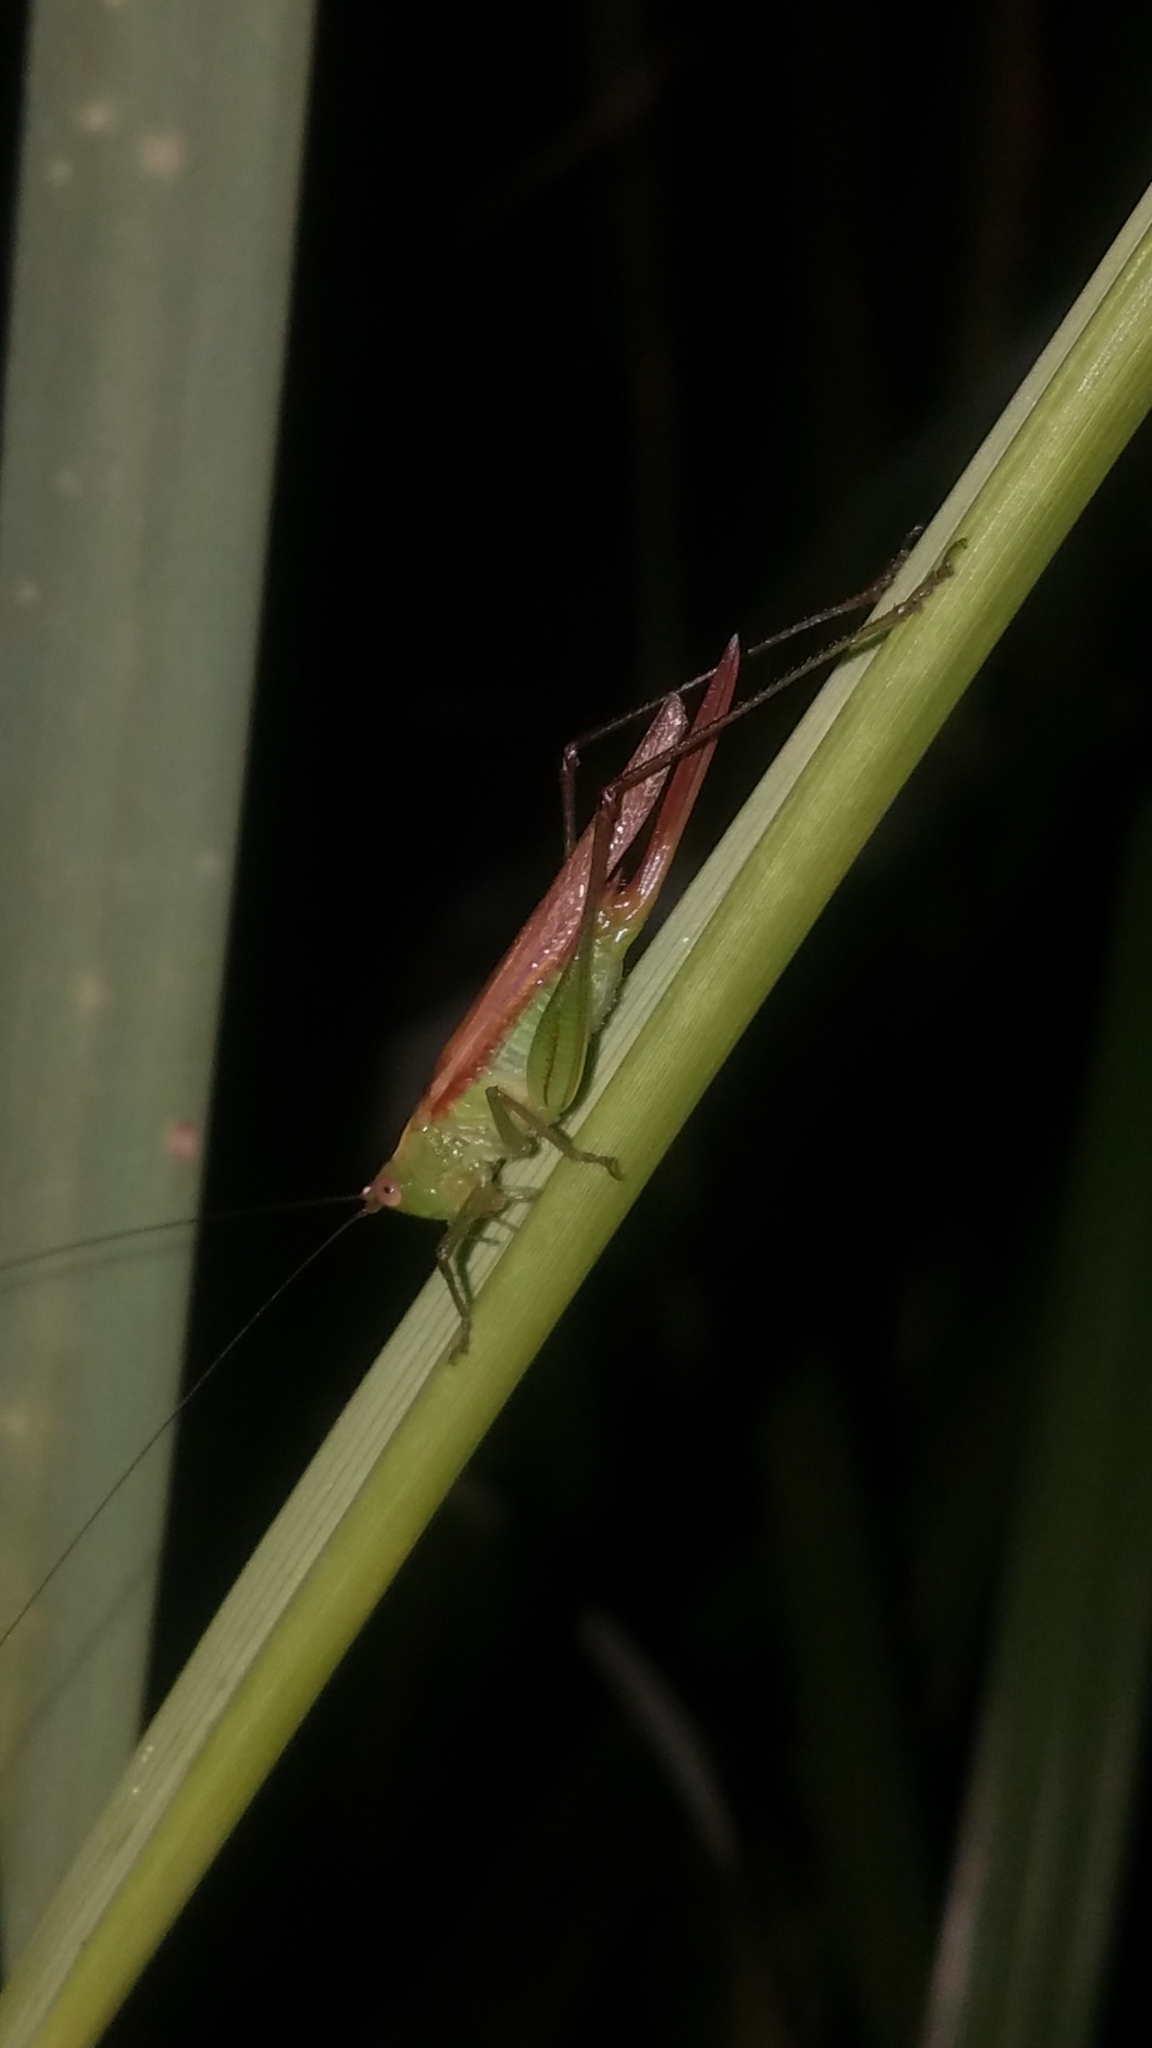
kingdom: Animalia
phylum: Arthropoda
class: Insecta
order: Orthoptera
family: Tettigoniidae
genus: Conocephalus
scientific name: Conocephalus fasciatus
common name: Slender meadow katydid
